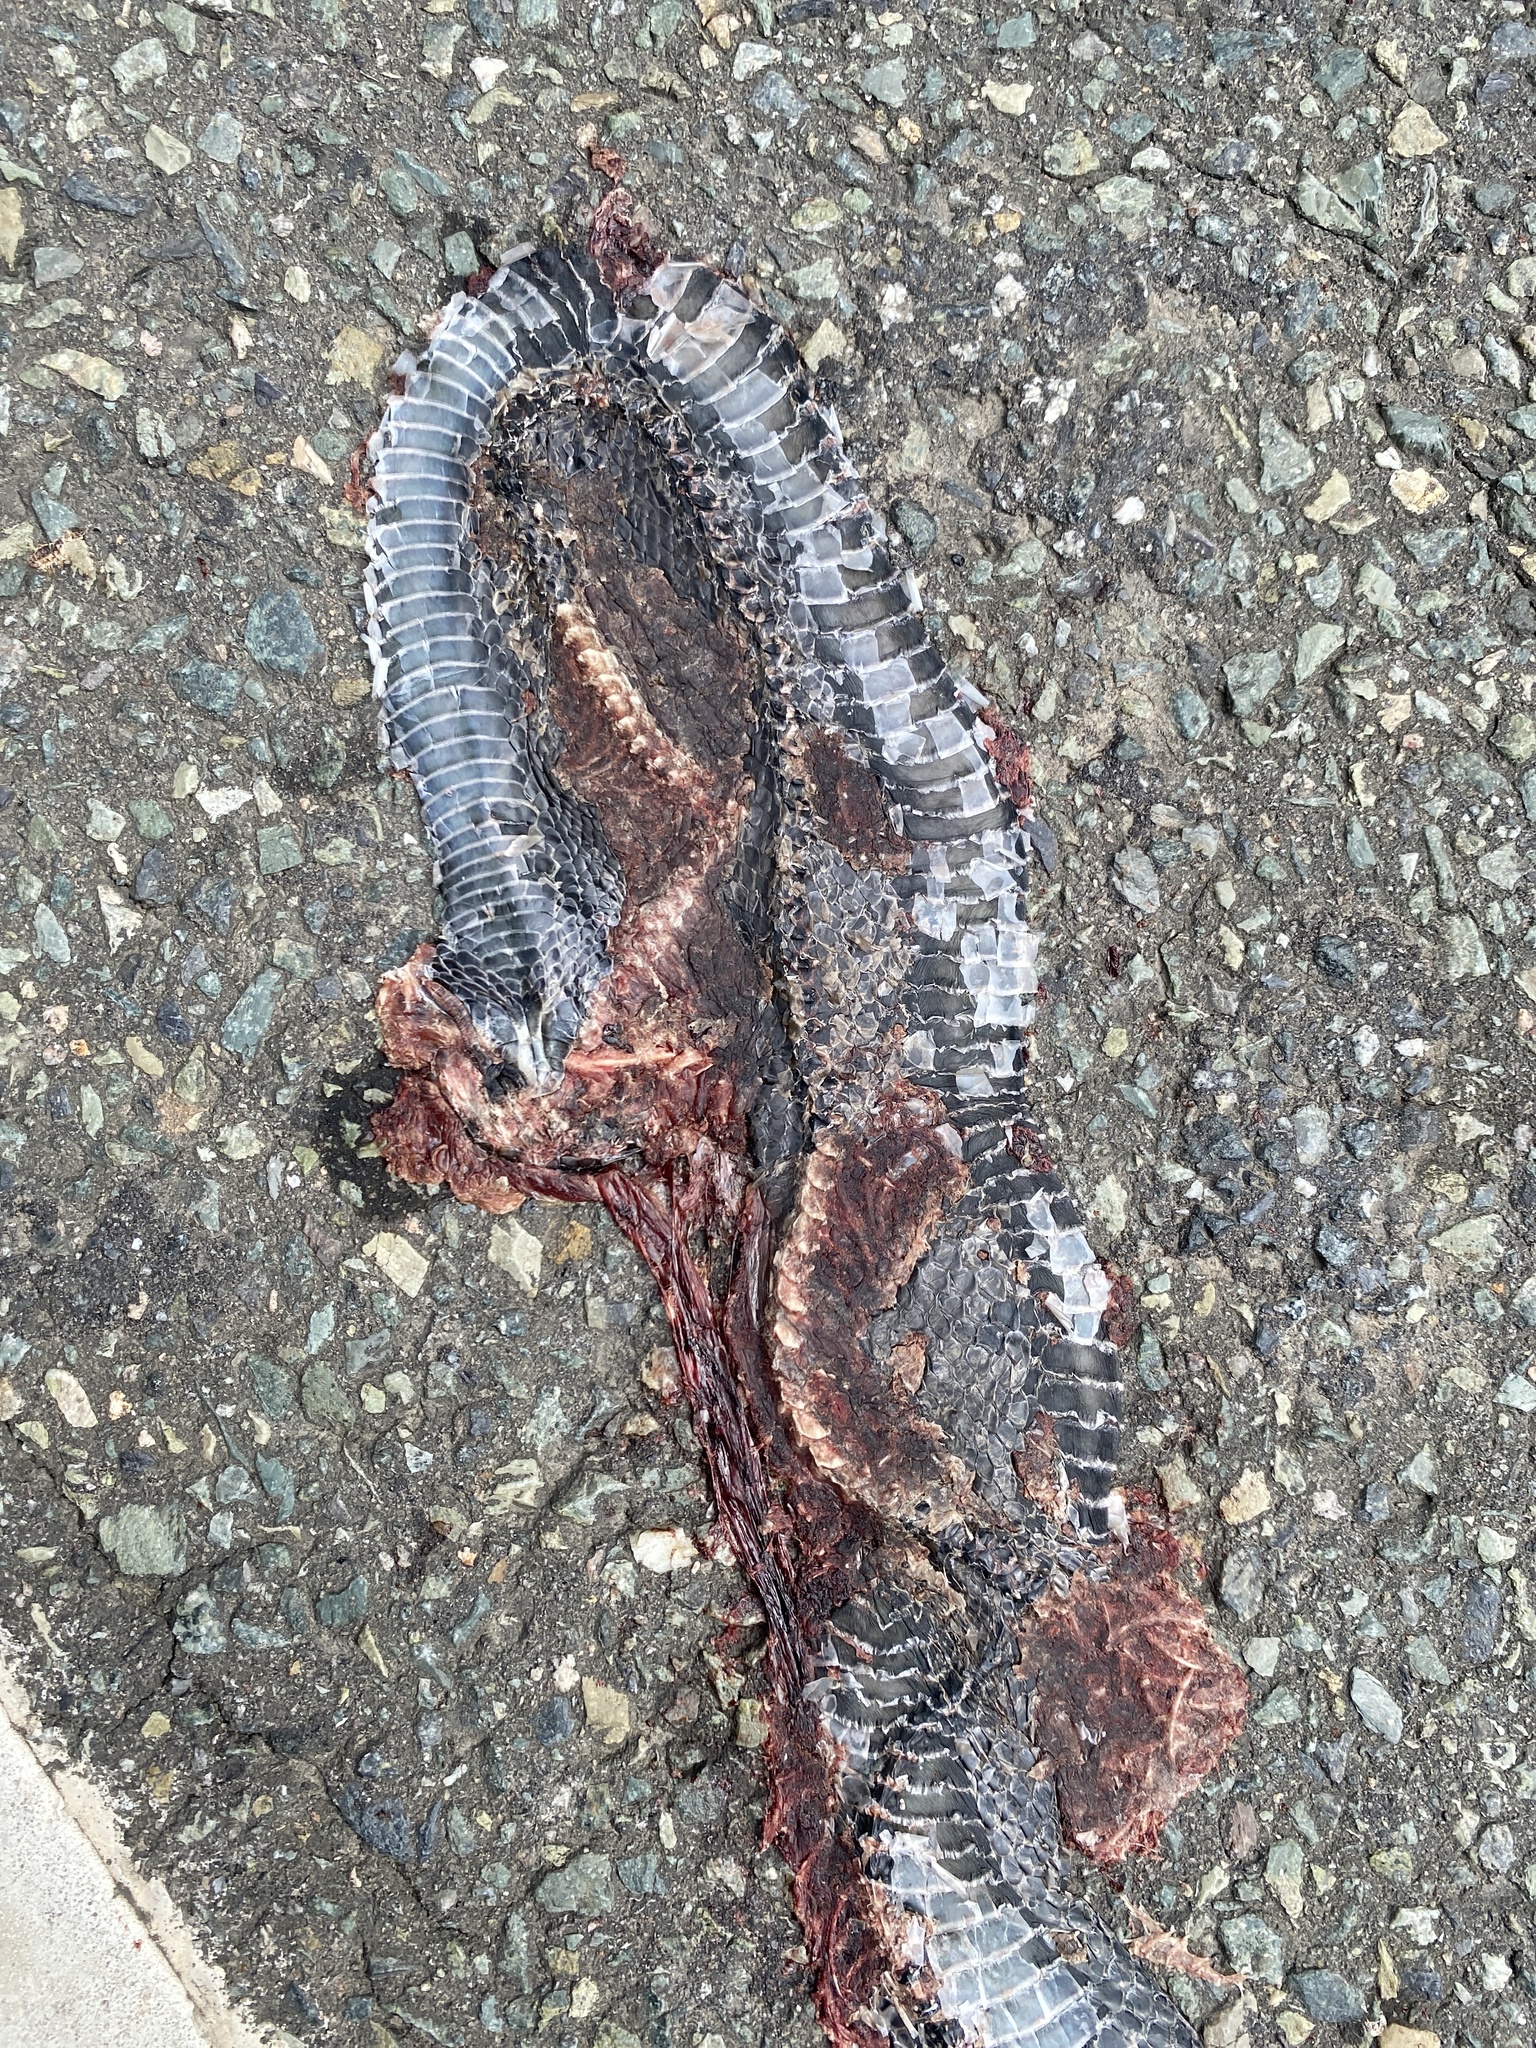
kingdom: Animalia
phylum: Chordata
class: Squamata
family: Colubridae
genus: Coluber
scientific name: Coluber constrictor
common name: Eastern racer
